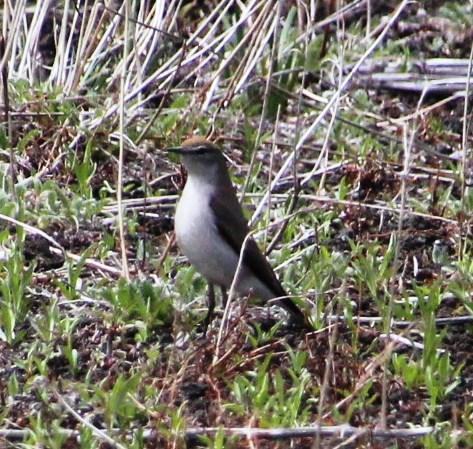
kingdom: Animalia
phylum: Chordata
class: Aves
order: Passeriformes
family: Tyrannidae
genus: Muscisaxicola
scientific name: Muscisaxicola albilora
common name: White-browed ground tyrant
